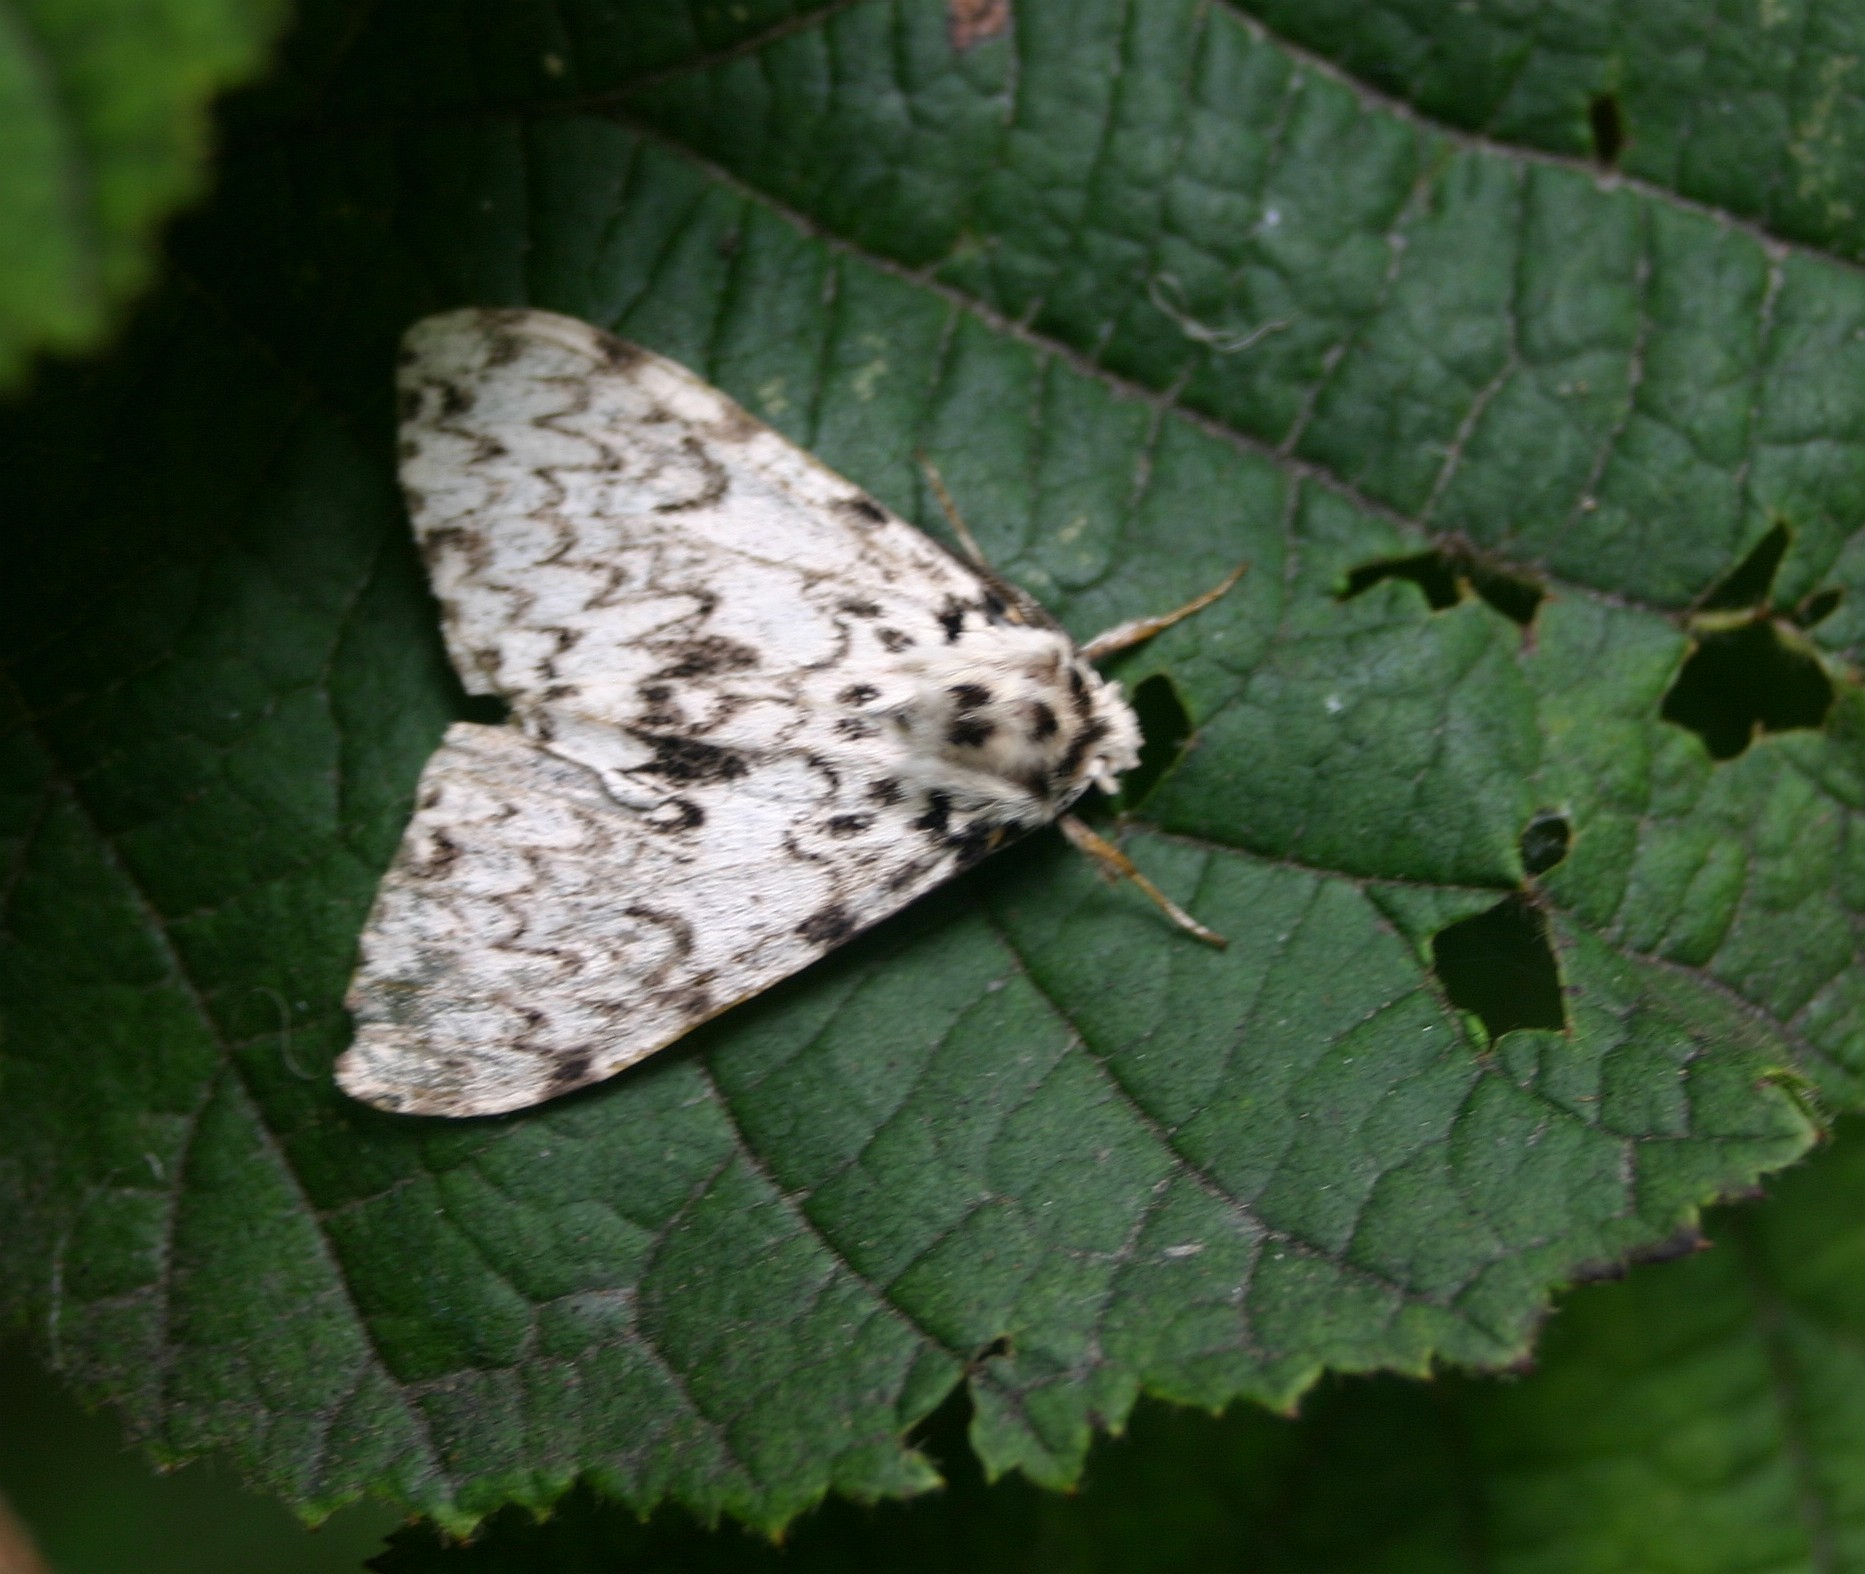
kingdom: Animalia
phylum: Arthropoda
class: Insecta
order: Lepidoptera
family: Erebidae
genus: Lymantria
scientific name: Lymantria monacha
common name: Black arches
